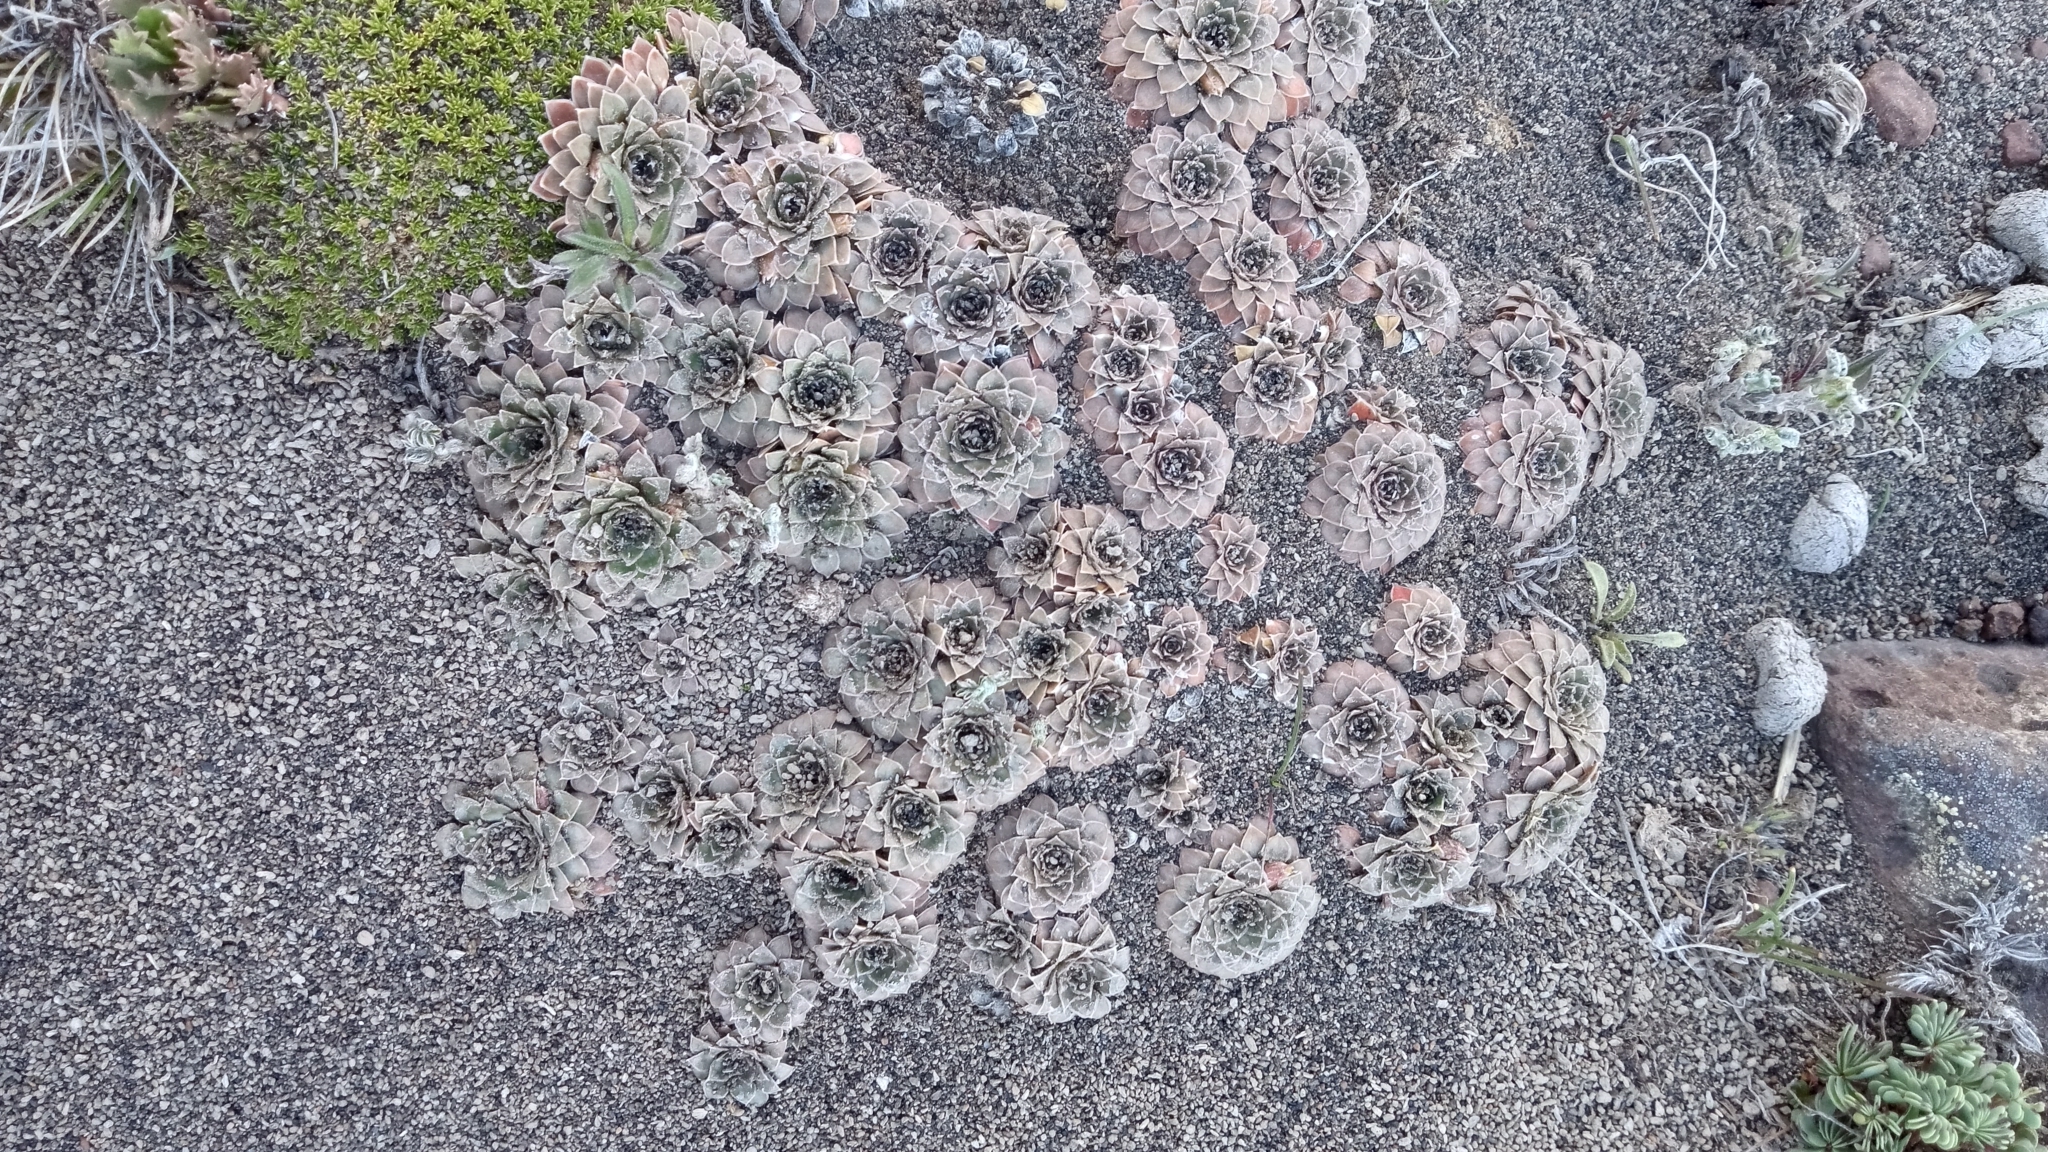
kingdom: Plantae
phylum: Tracheophyta
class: Magnoliopsida
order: Malpighiales
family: Violaceae
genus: Viola
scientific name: Viola auricolor
